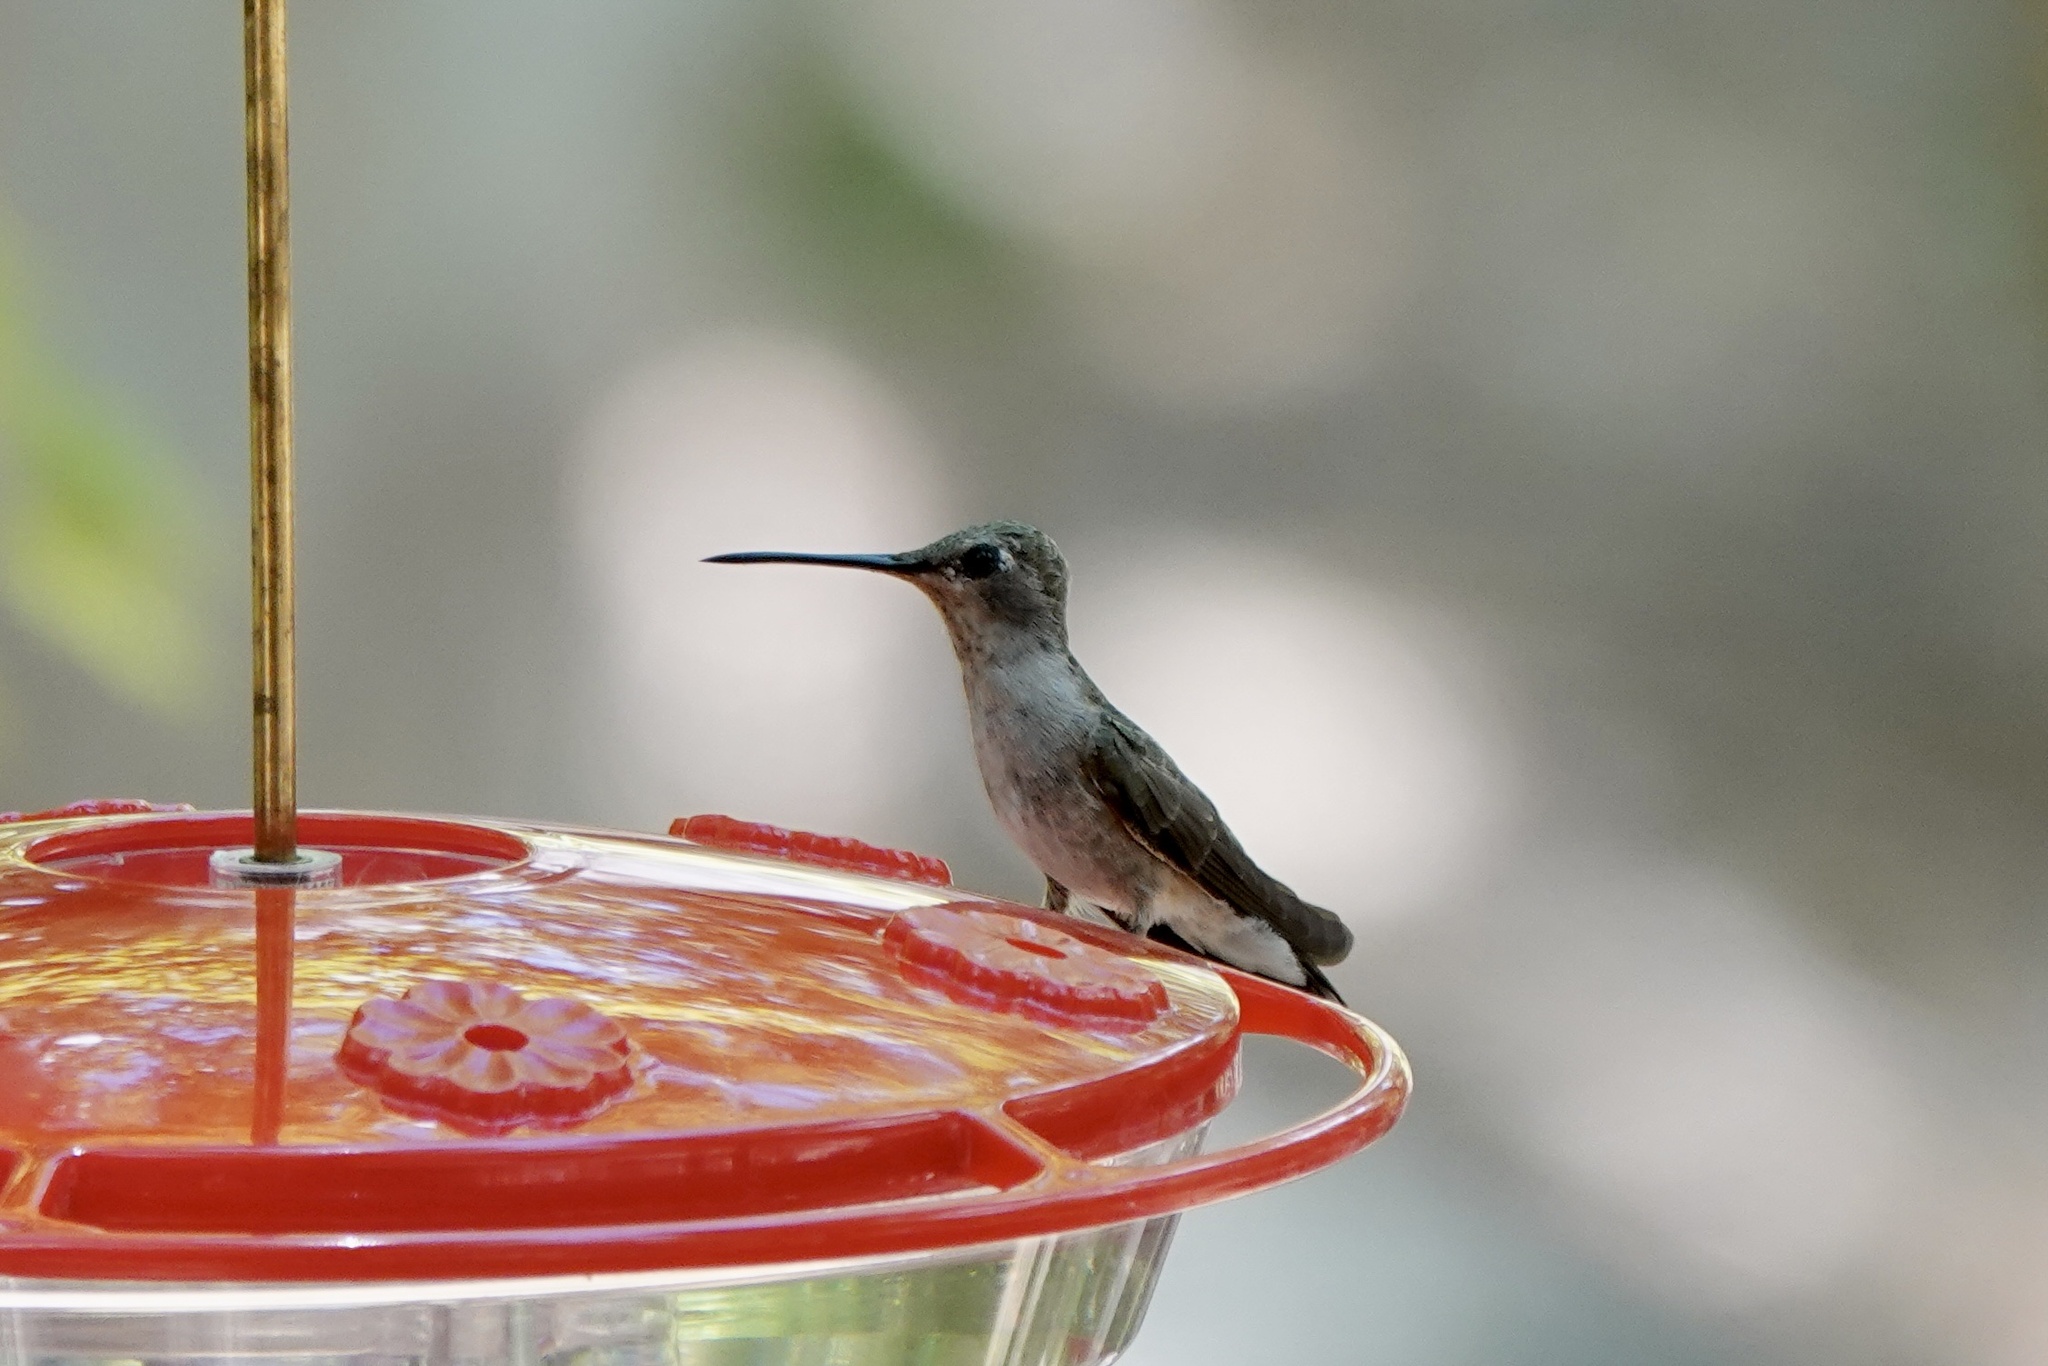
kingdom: Animalia
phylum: Chordata
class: Aves
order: Apodiformes
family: Trochilidae
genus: Archilochus
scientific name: Archilochus alexandri
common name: Black-chinned hummingbird
